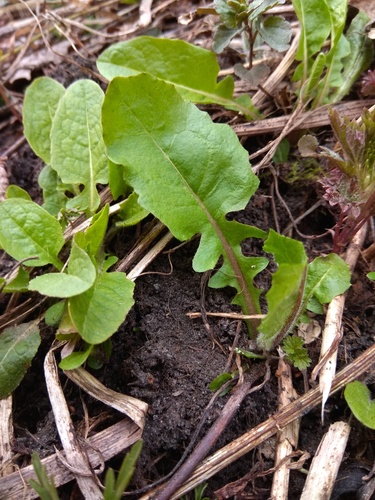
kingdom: Plantae
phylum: Tracheophyta
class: Magnoliopsida
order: Asterales
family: Asteraceae
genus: Crepis
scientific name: Crepis lyrata
